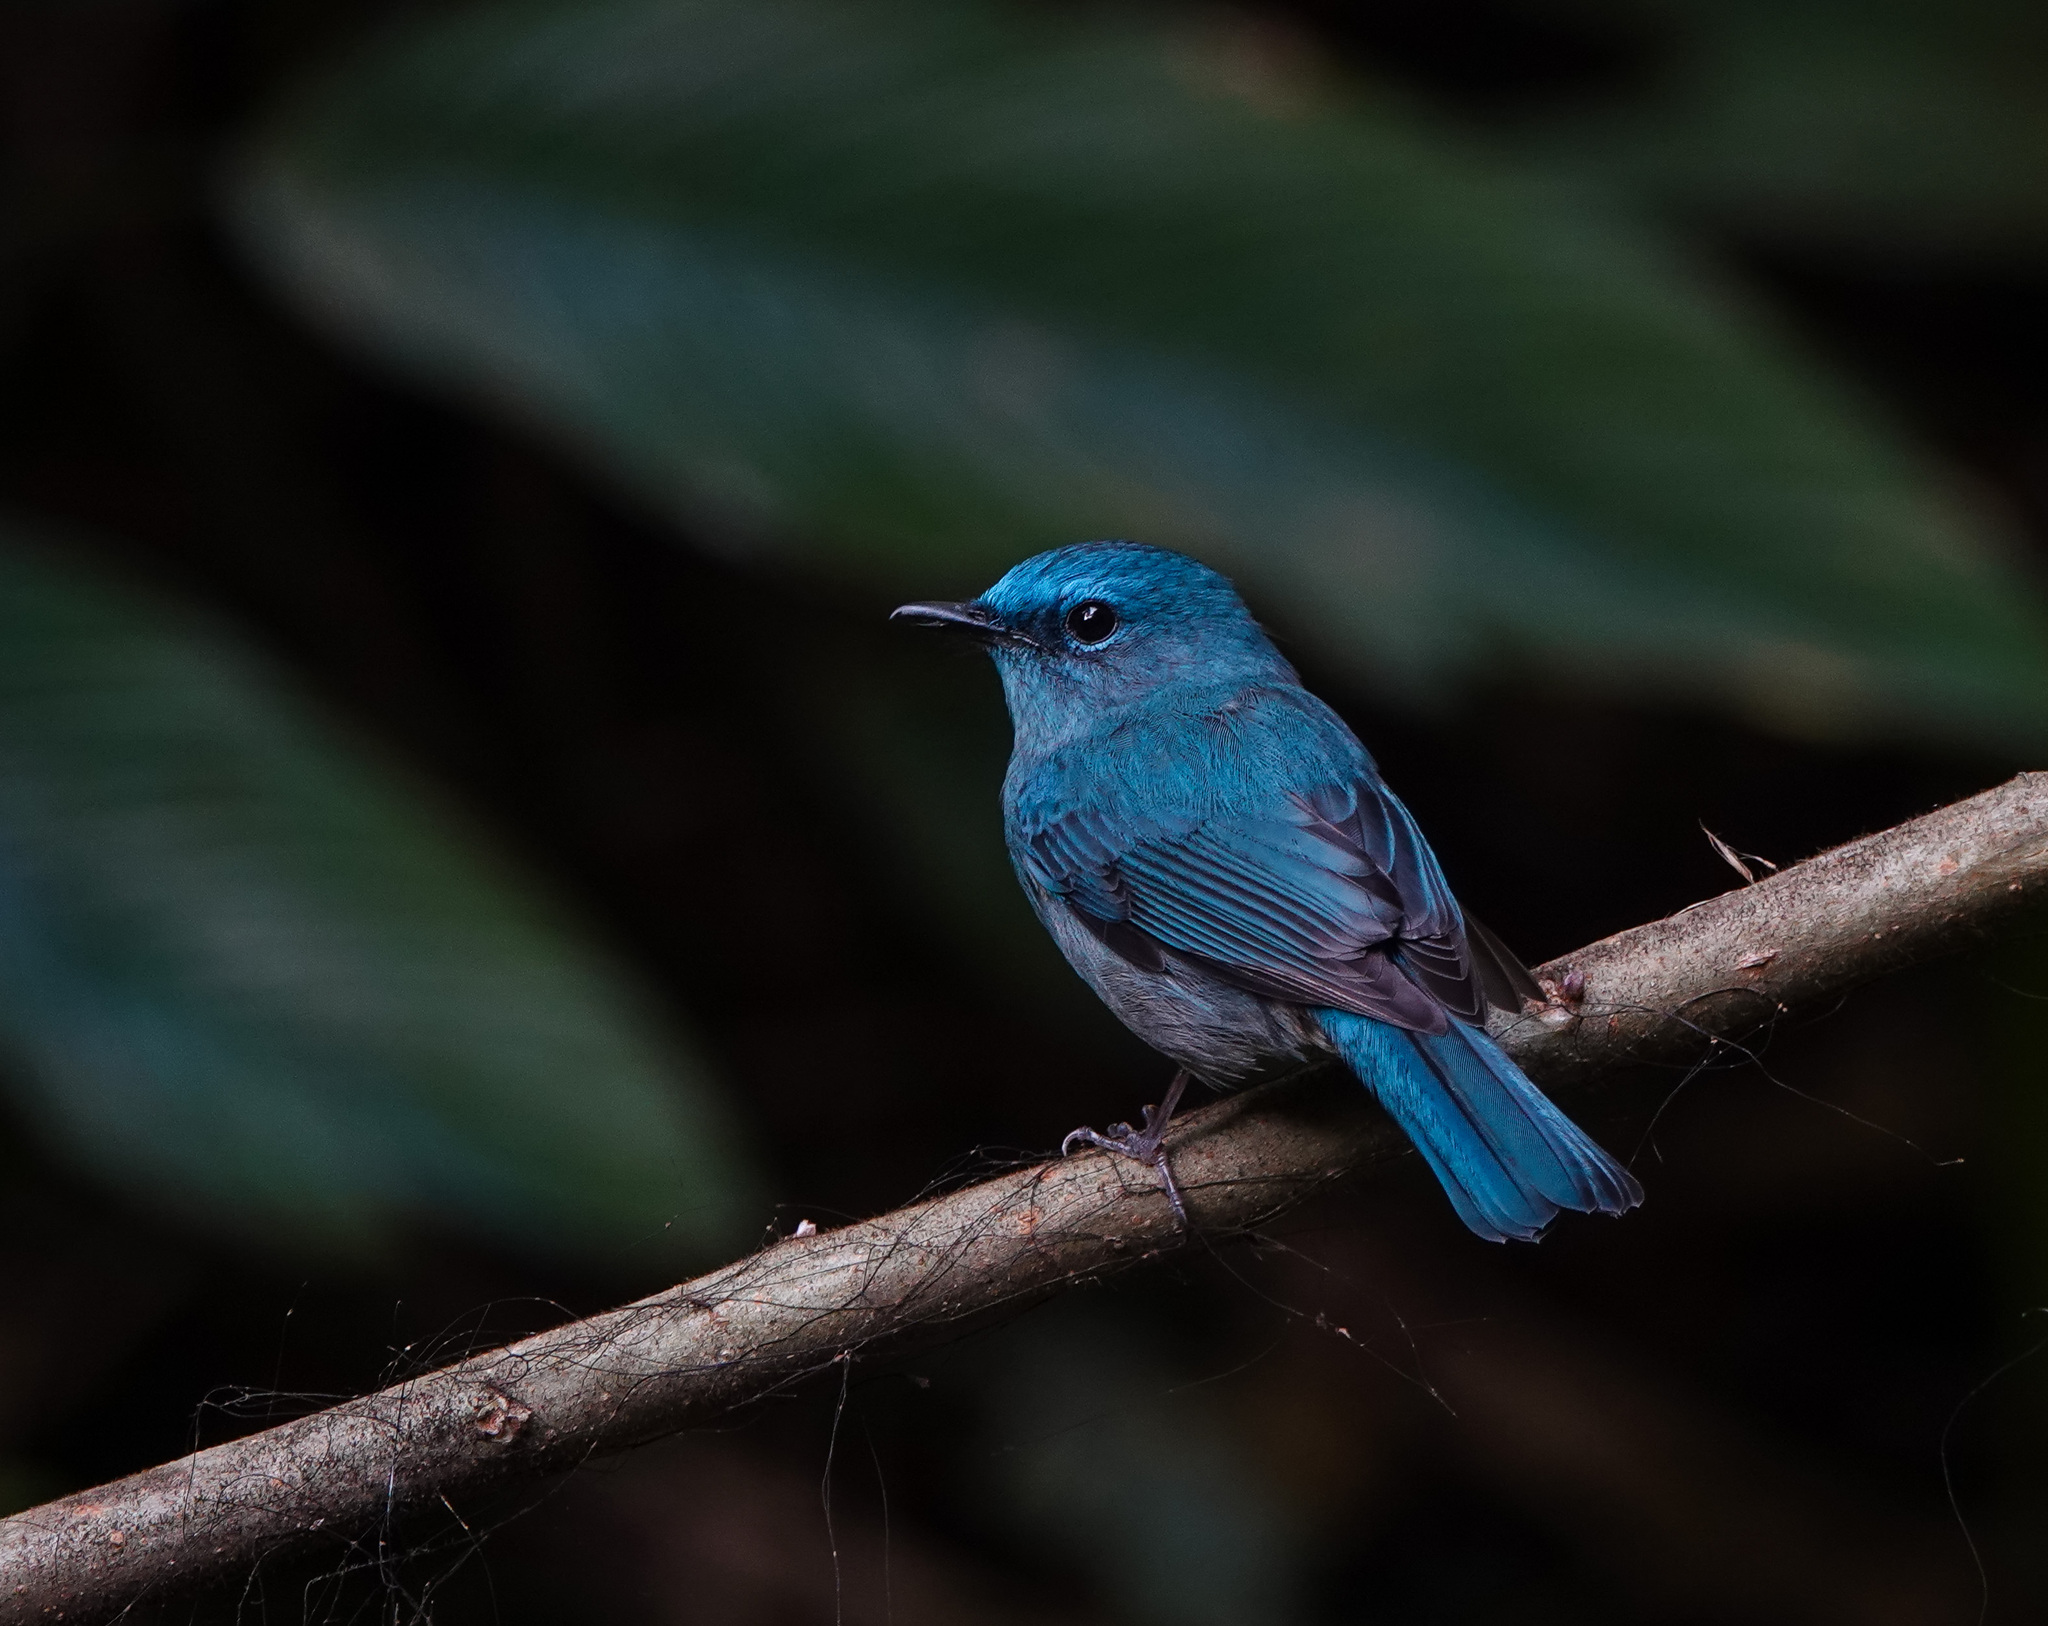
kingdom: Animalia
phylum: Chordata
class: Aves
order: Passeriformes
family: Muscicapidae
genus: Cyornis
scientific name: Cyornis unicolor
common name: Pale blue flycatcher
